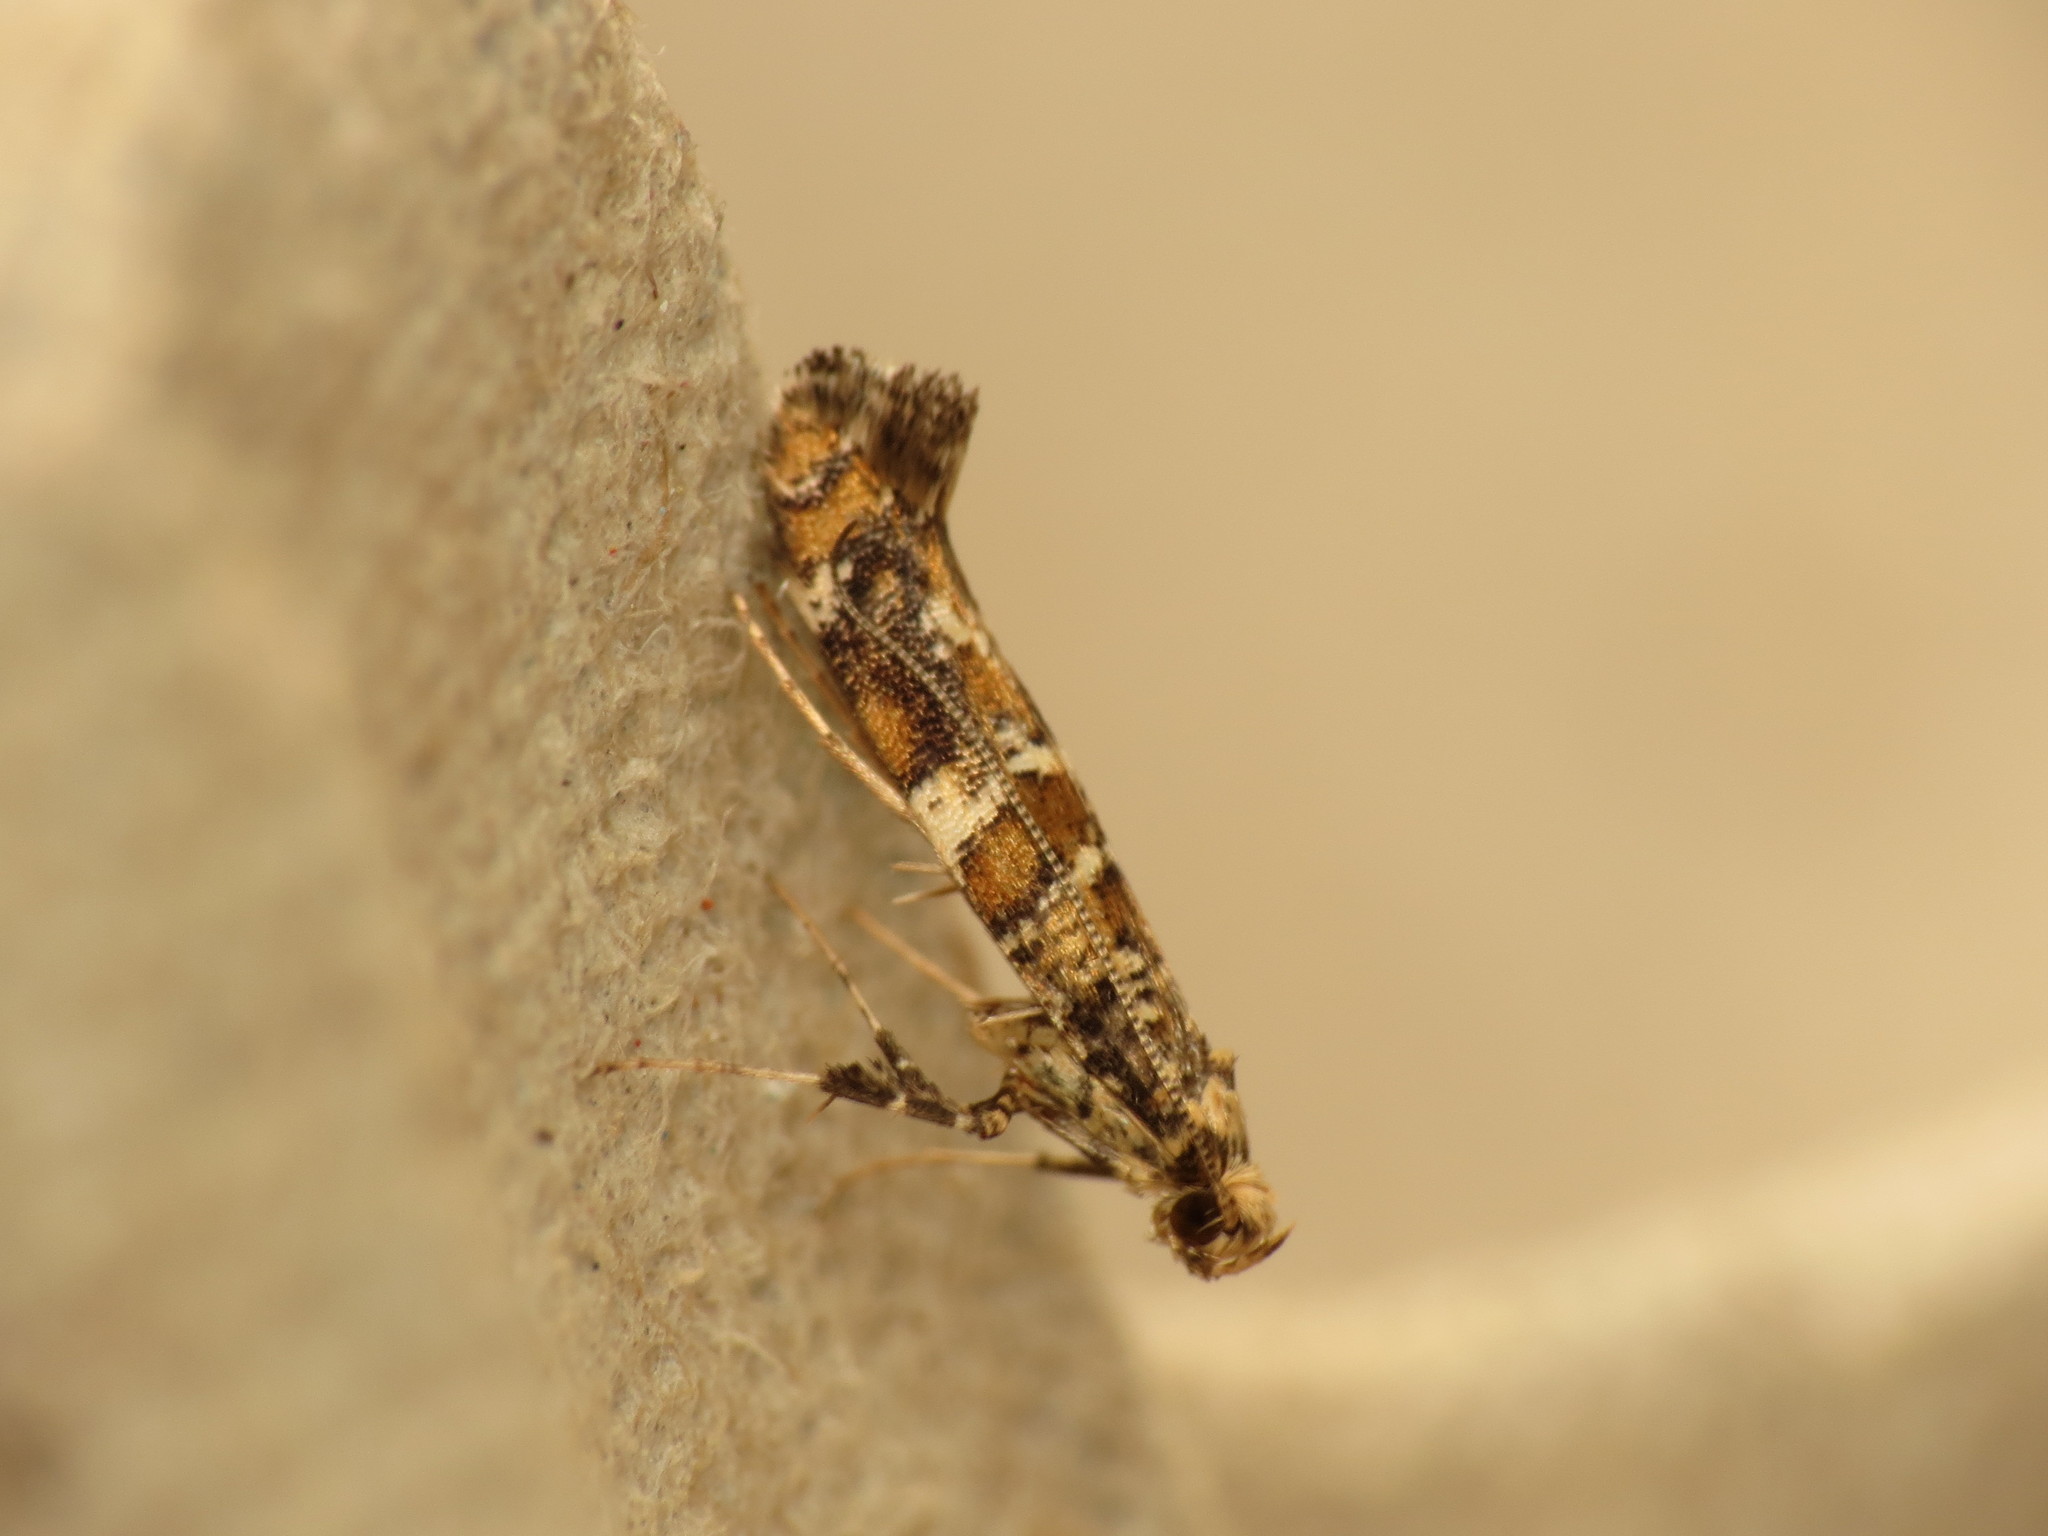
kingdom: Animalia
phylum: Arthropoda
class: Insecta
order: Lepidoptera
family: Gracillariidae
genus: Gracillaria
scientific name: Gracillaria syringella
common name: Common slender
